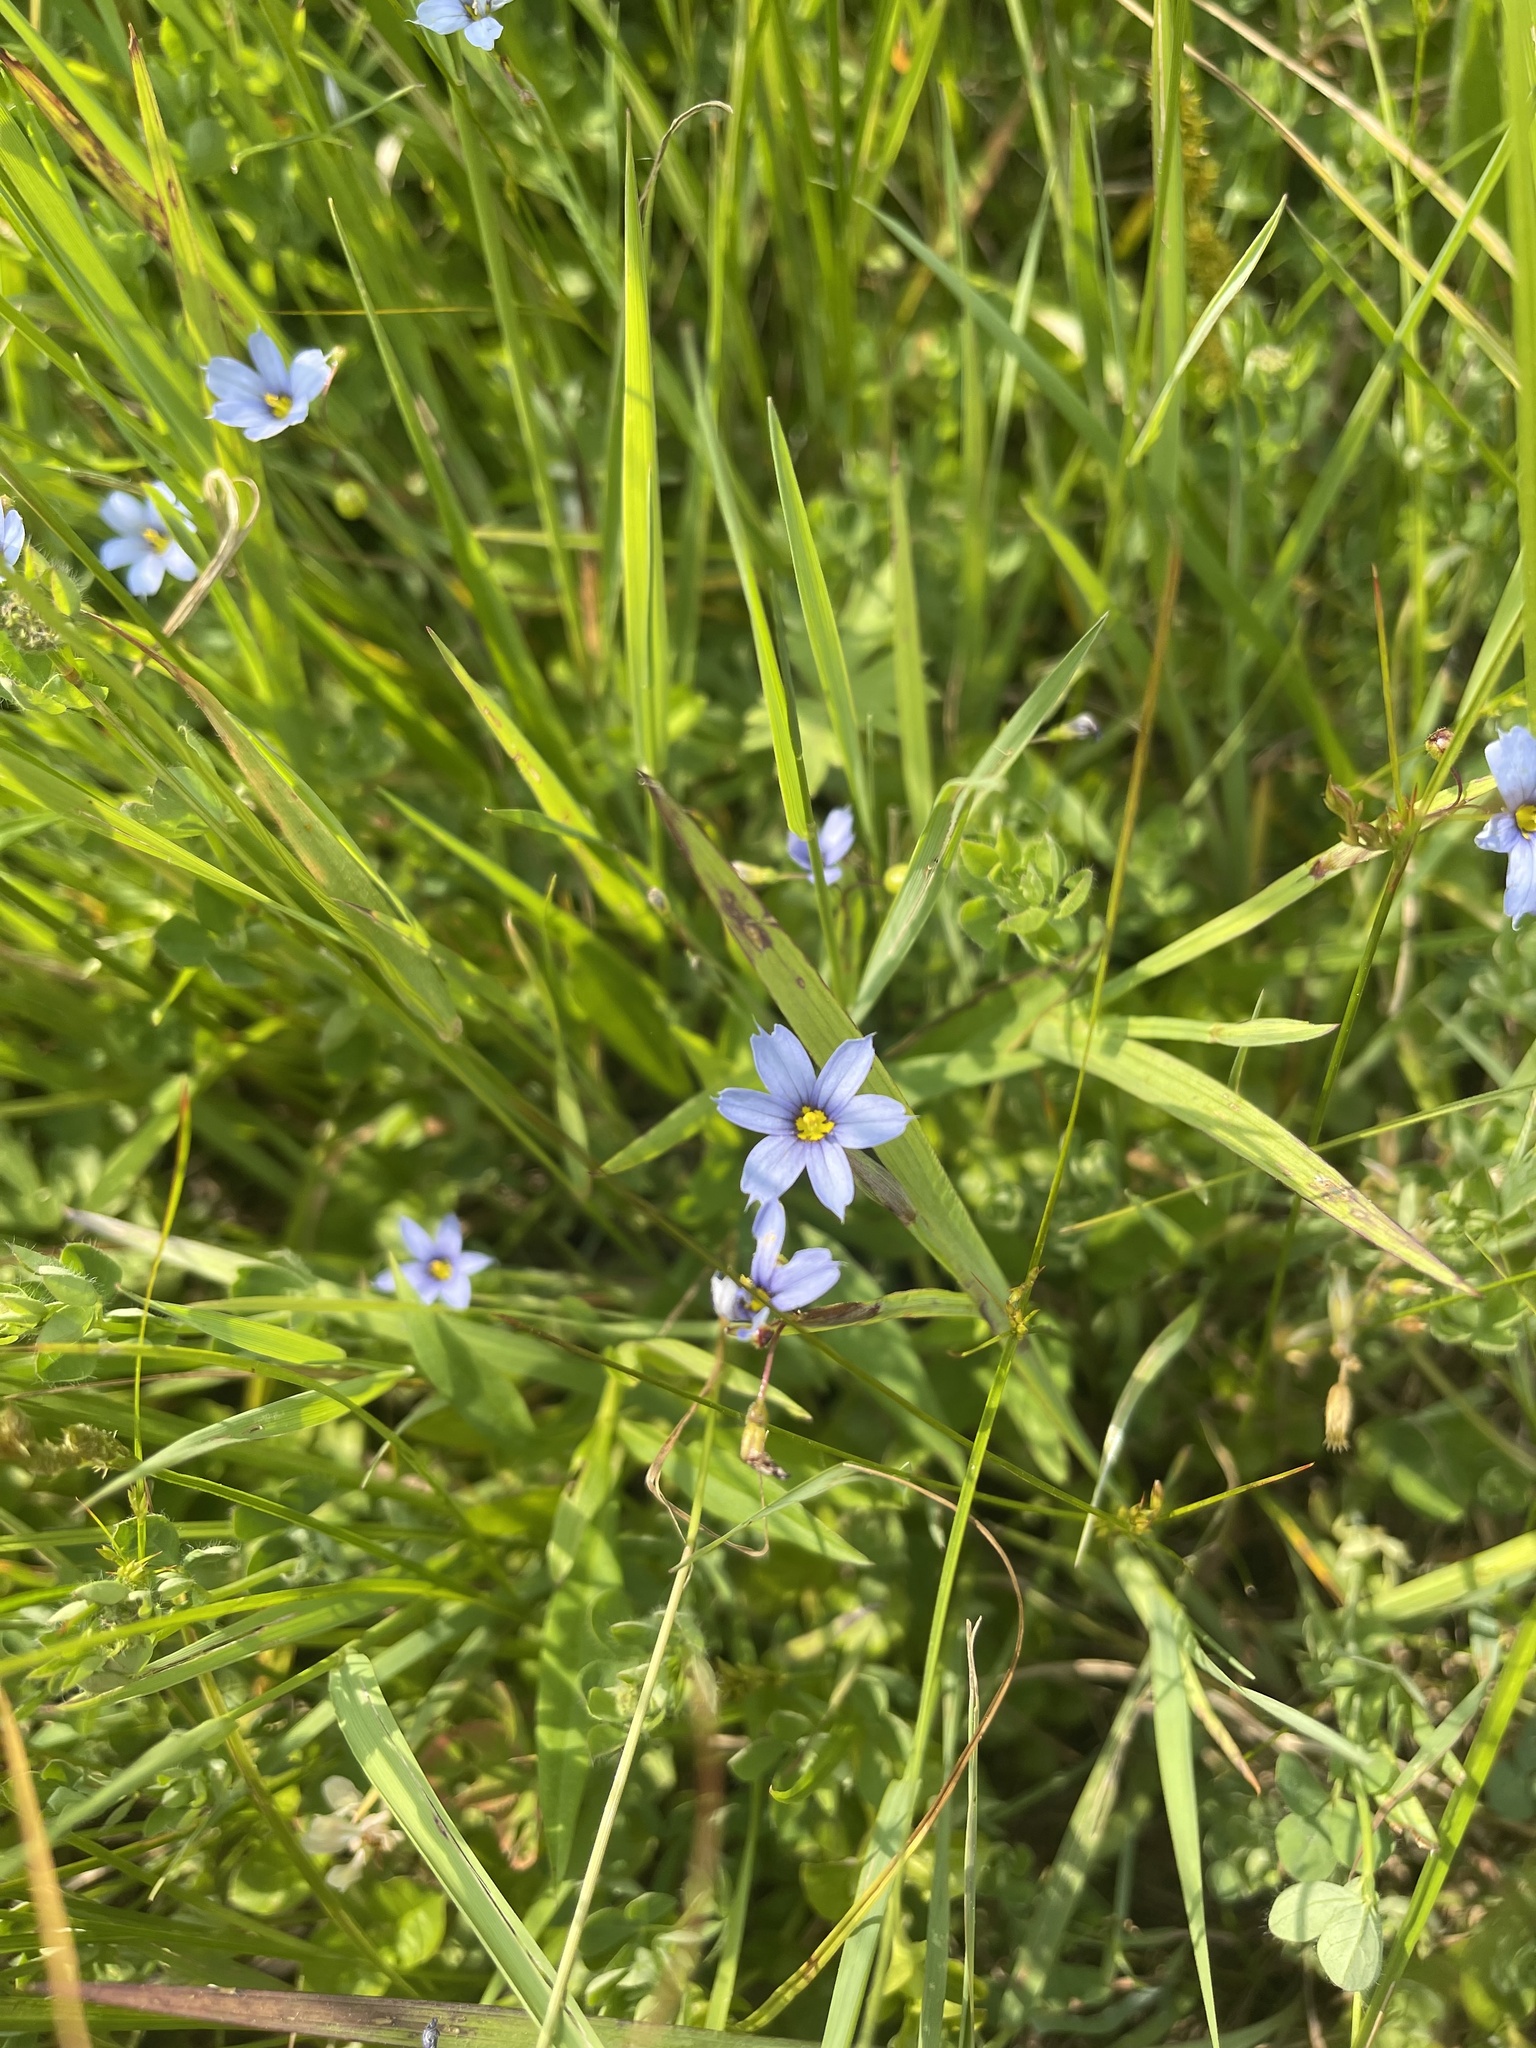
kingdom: Plantae
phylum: Tracheophyta
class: Liliopsida
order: Asparagales
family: Iridaceae
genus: Sisyrinchium
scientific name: Sisyrinchium angustifolium
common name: Narrow-leaf blue-eyed-grass
